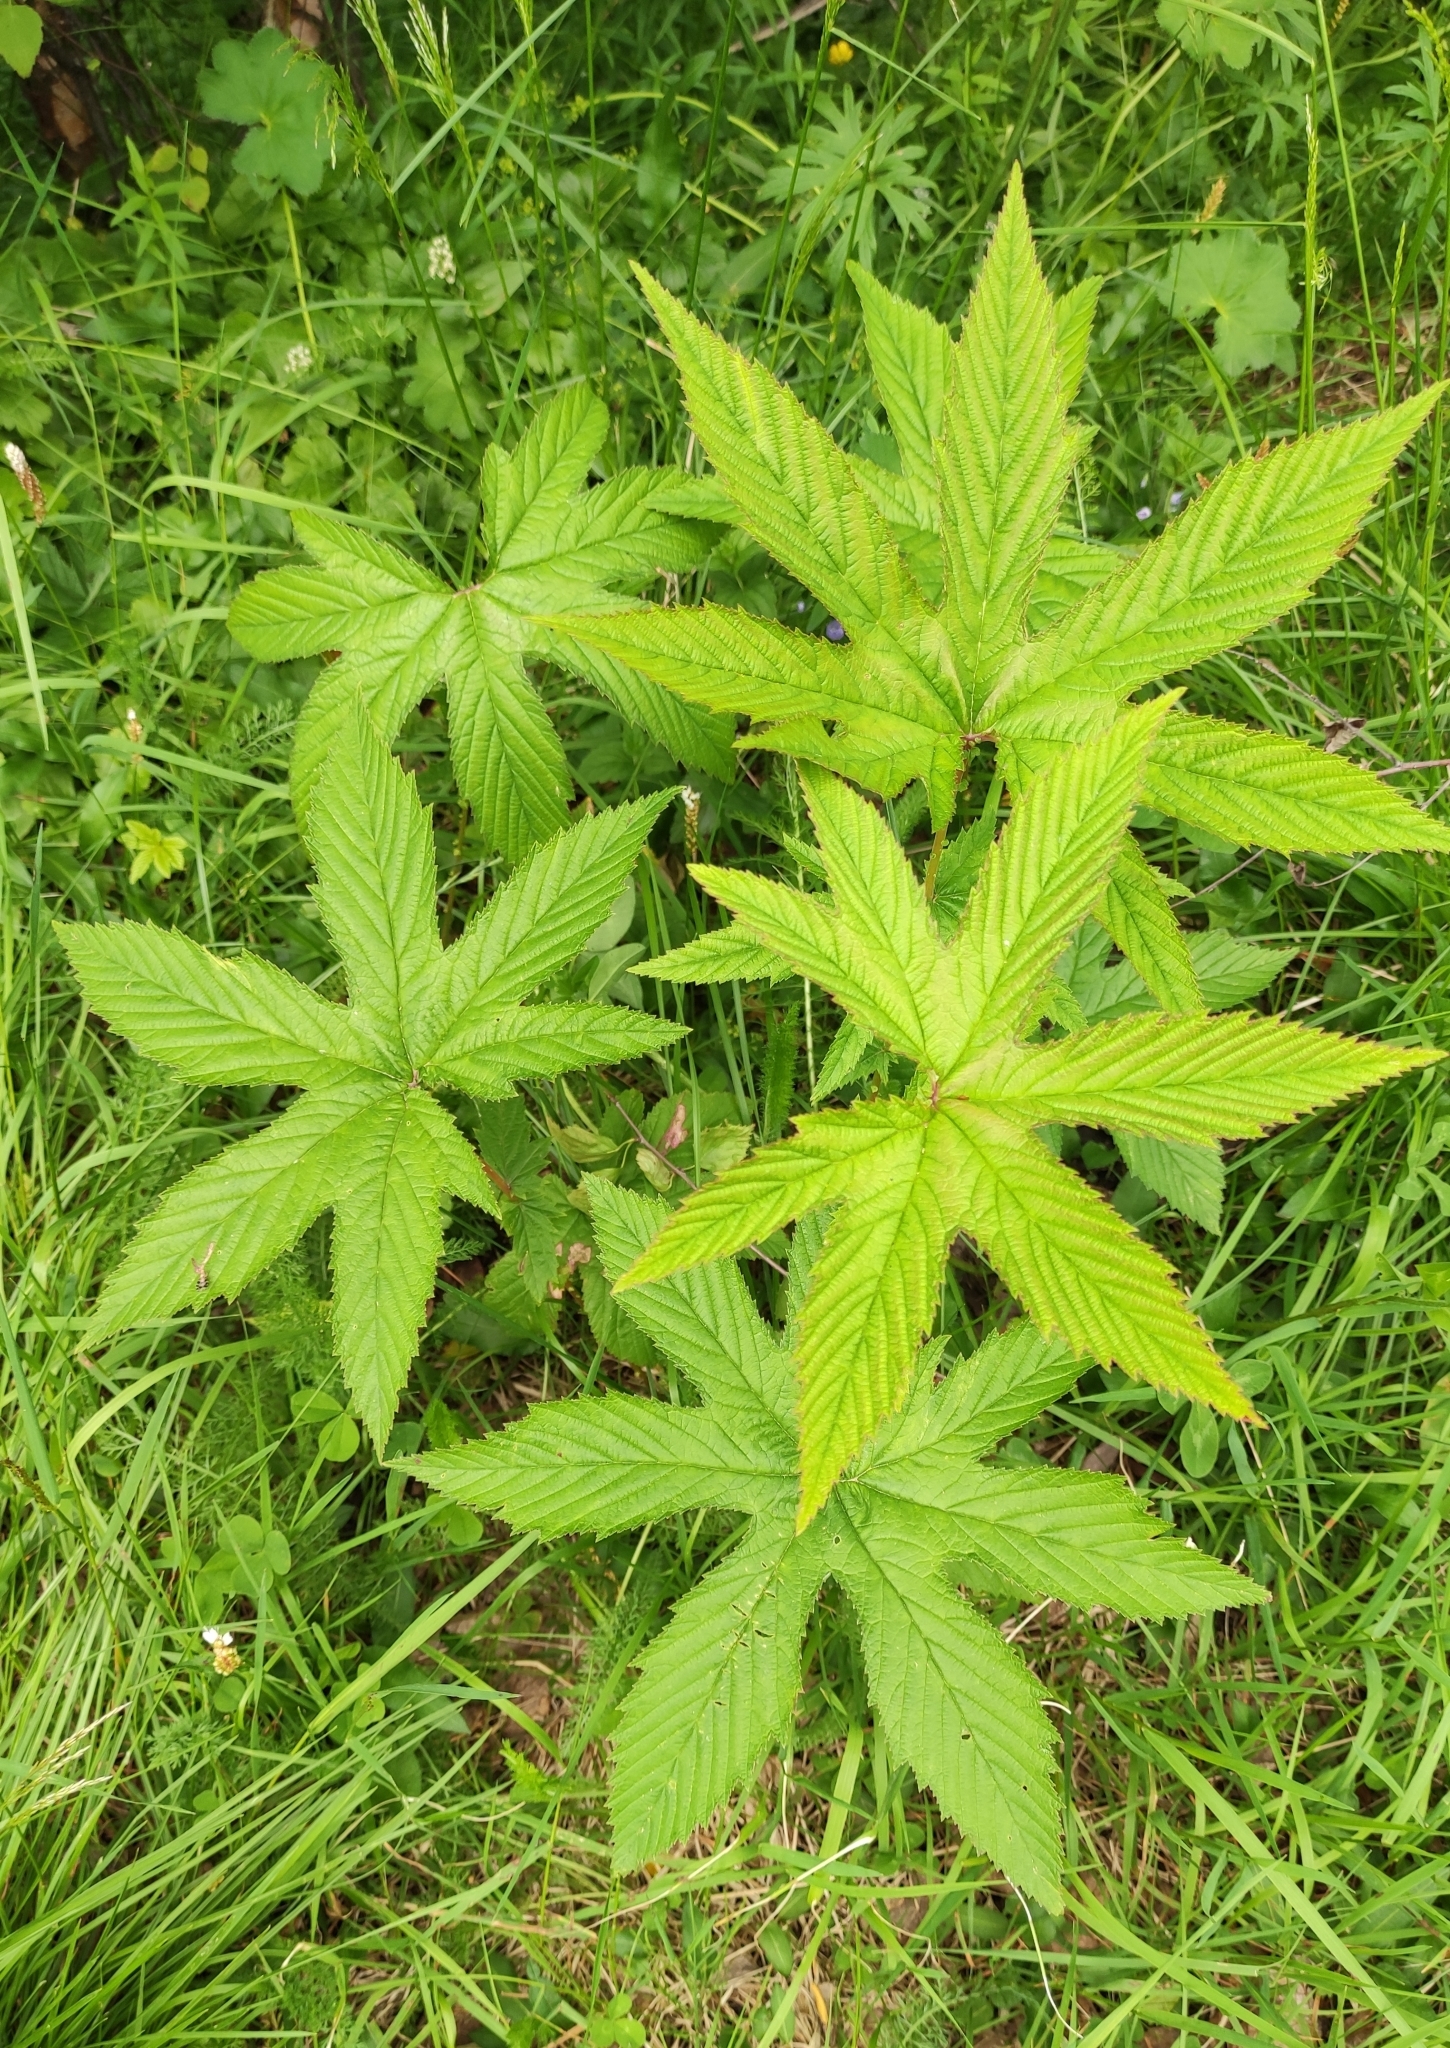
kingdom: Plantae
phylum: Tracheophyta
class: Magnoliopsida
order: Rosales
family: Rosaceae
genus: Filipendula
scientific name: Filipendula digitata
